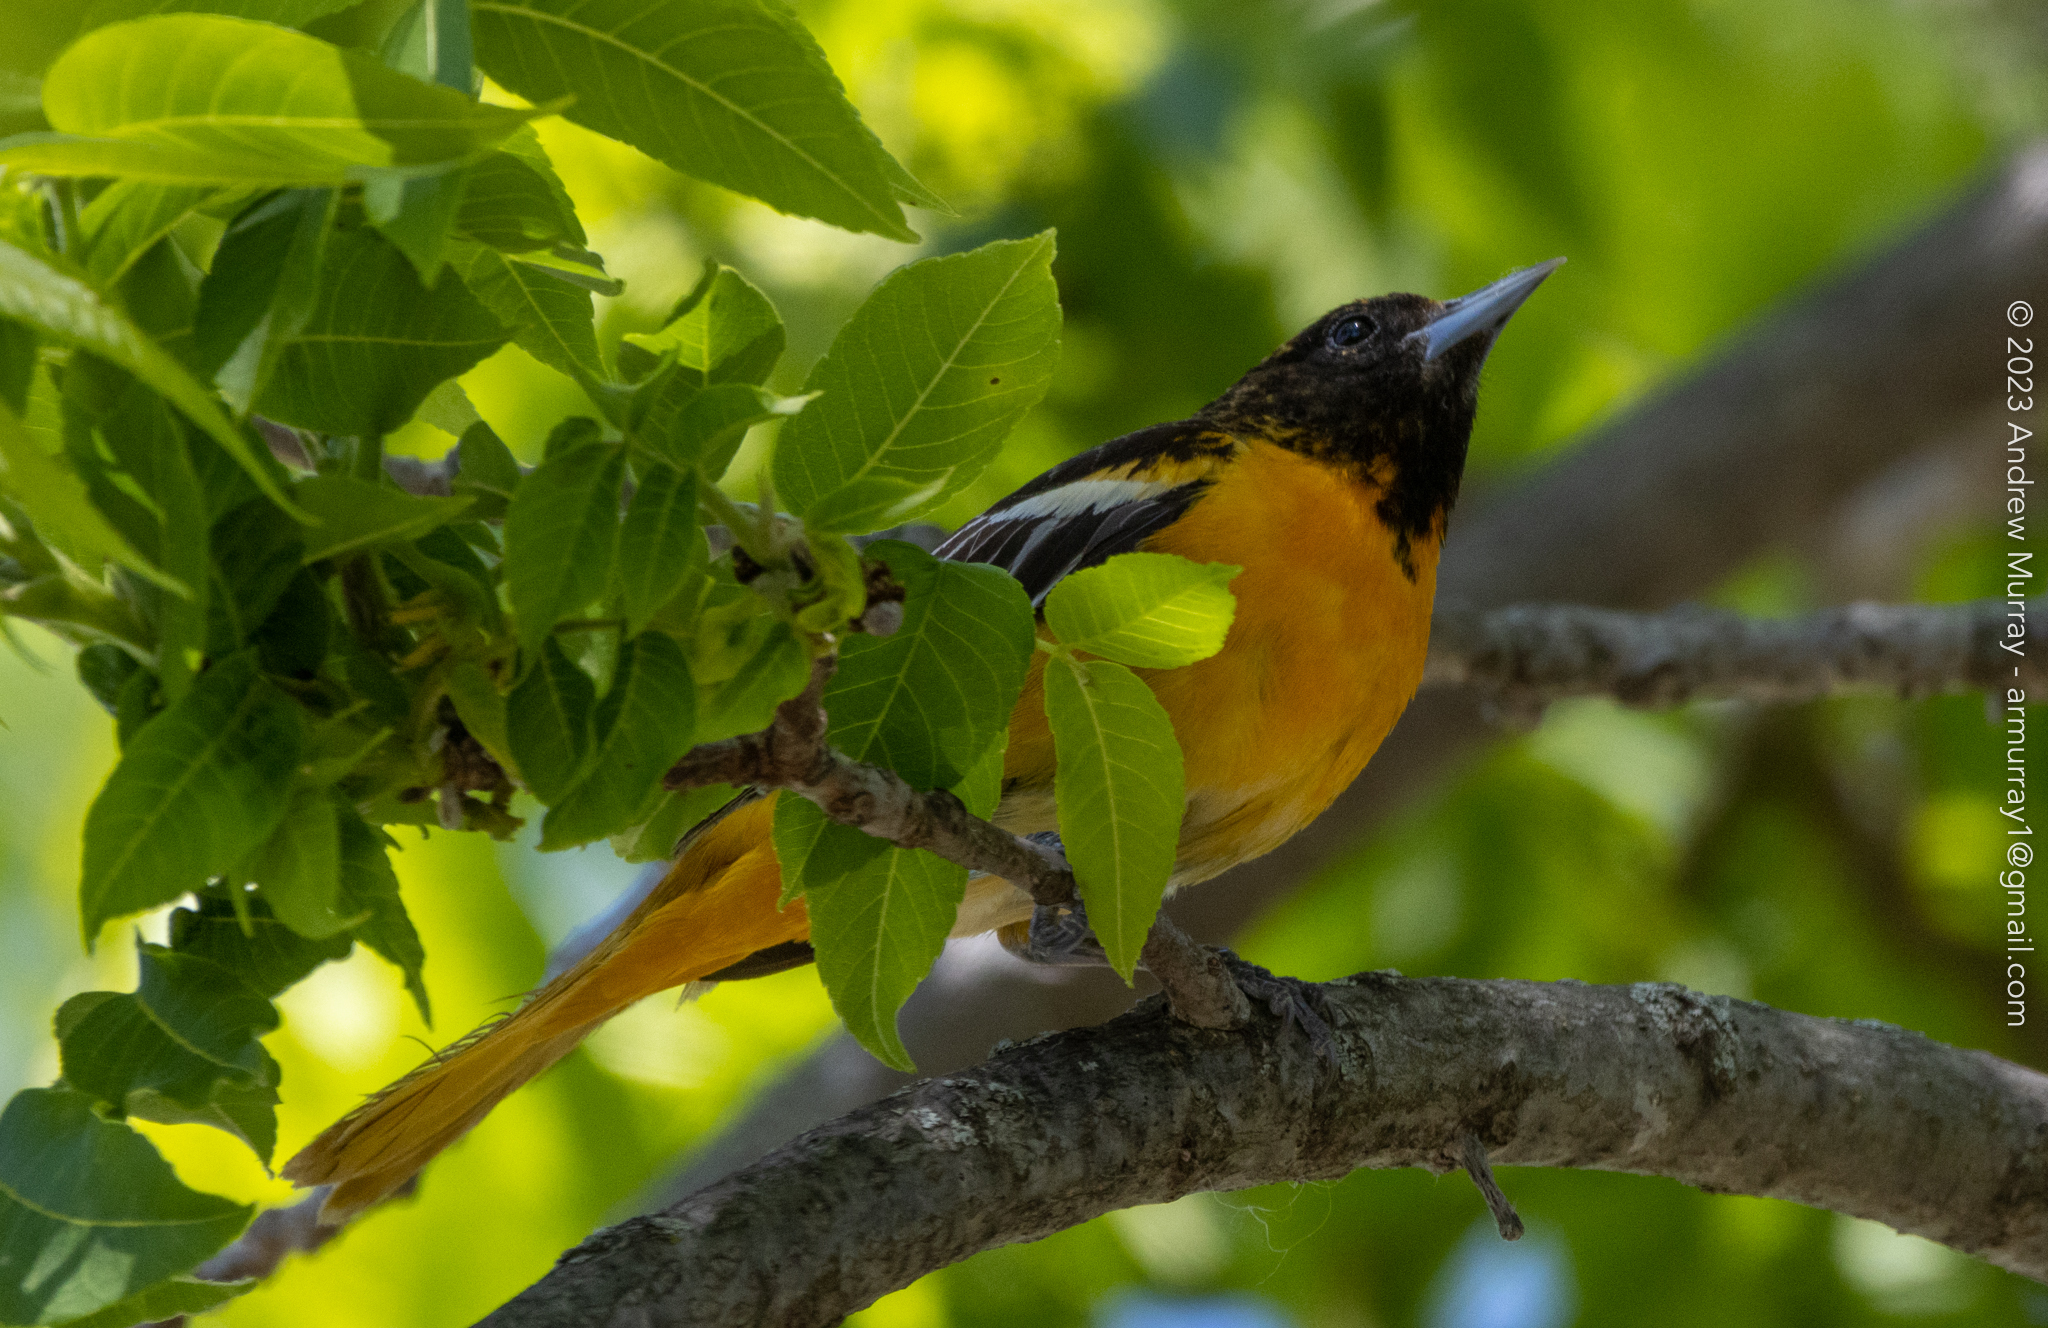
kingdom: Animalia
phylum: Chordata
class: Aves
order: Passeriformes
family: Icteridae
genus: Icterus
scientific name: Icterus galbula
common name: Baltimore oriole
